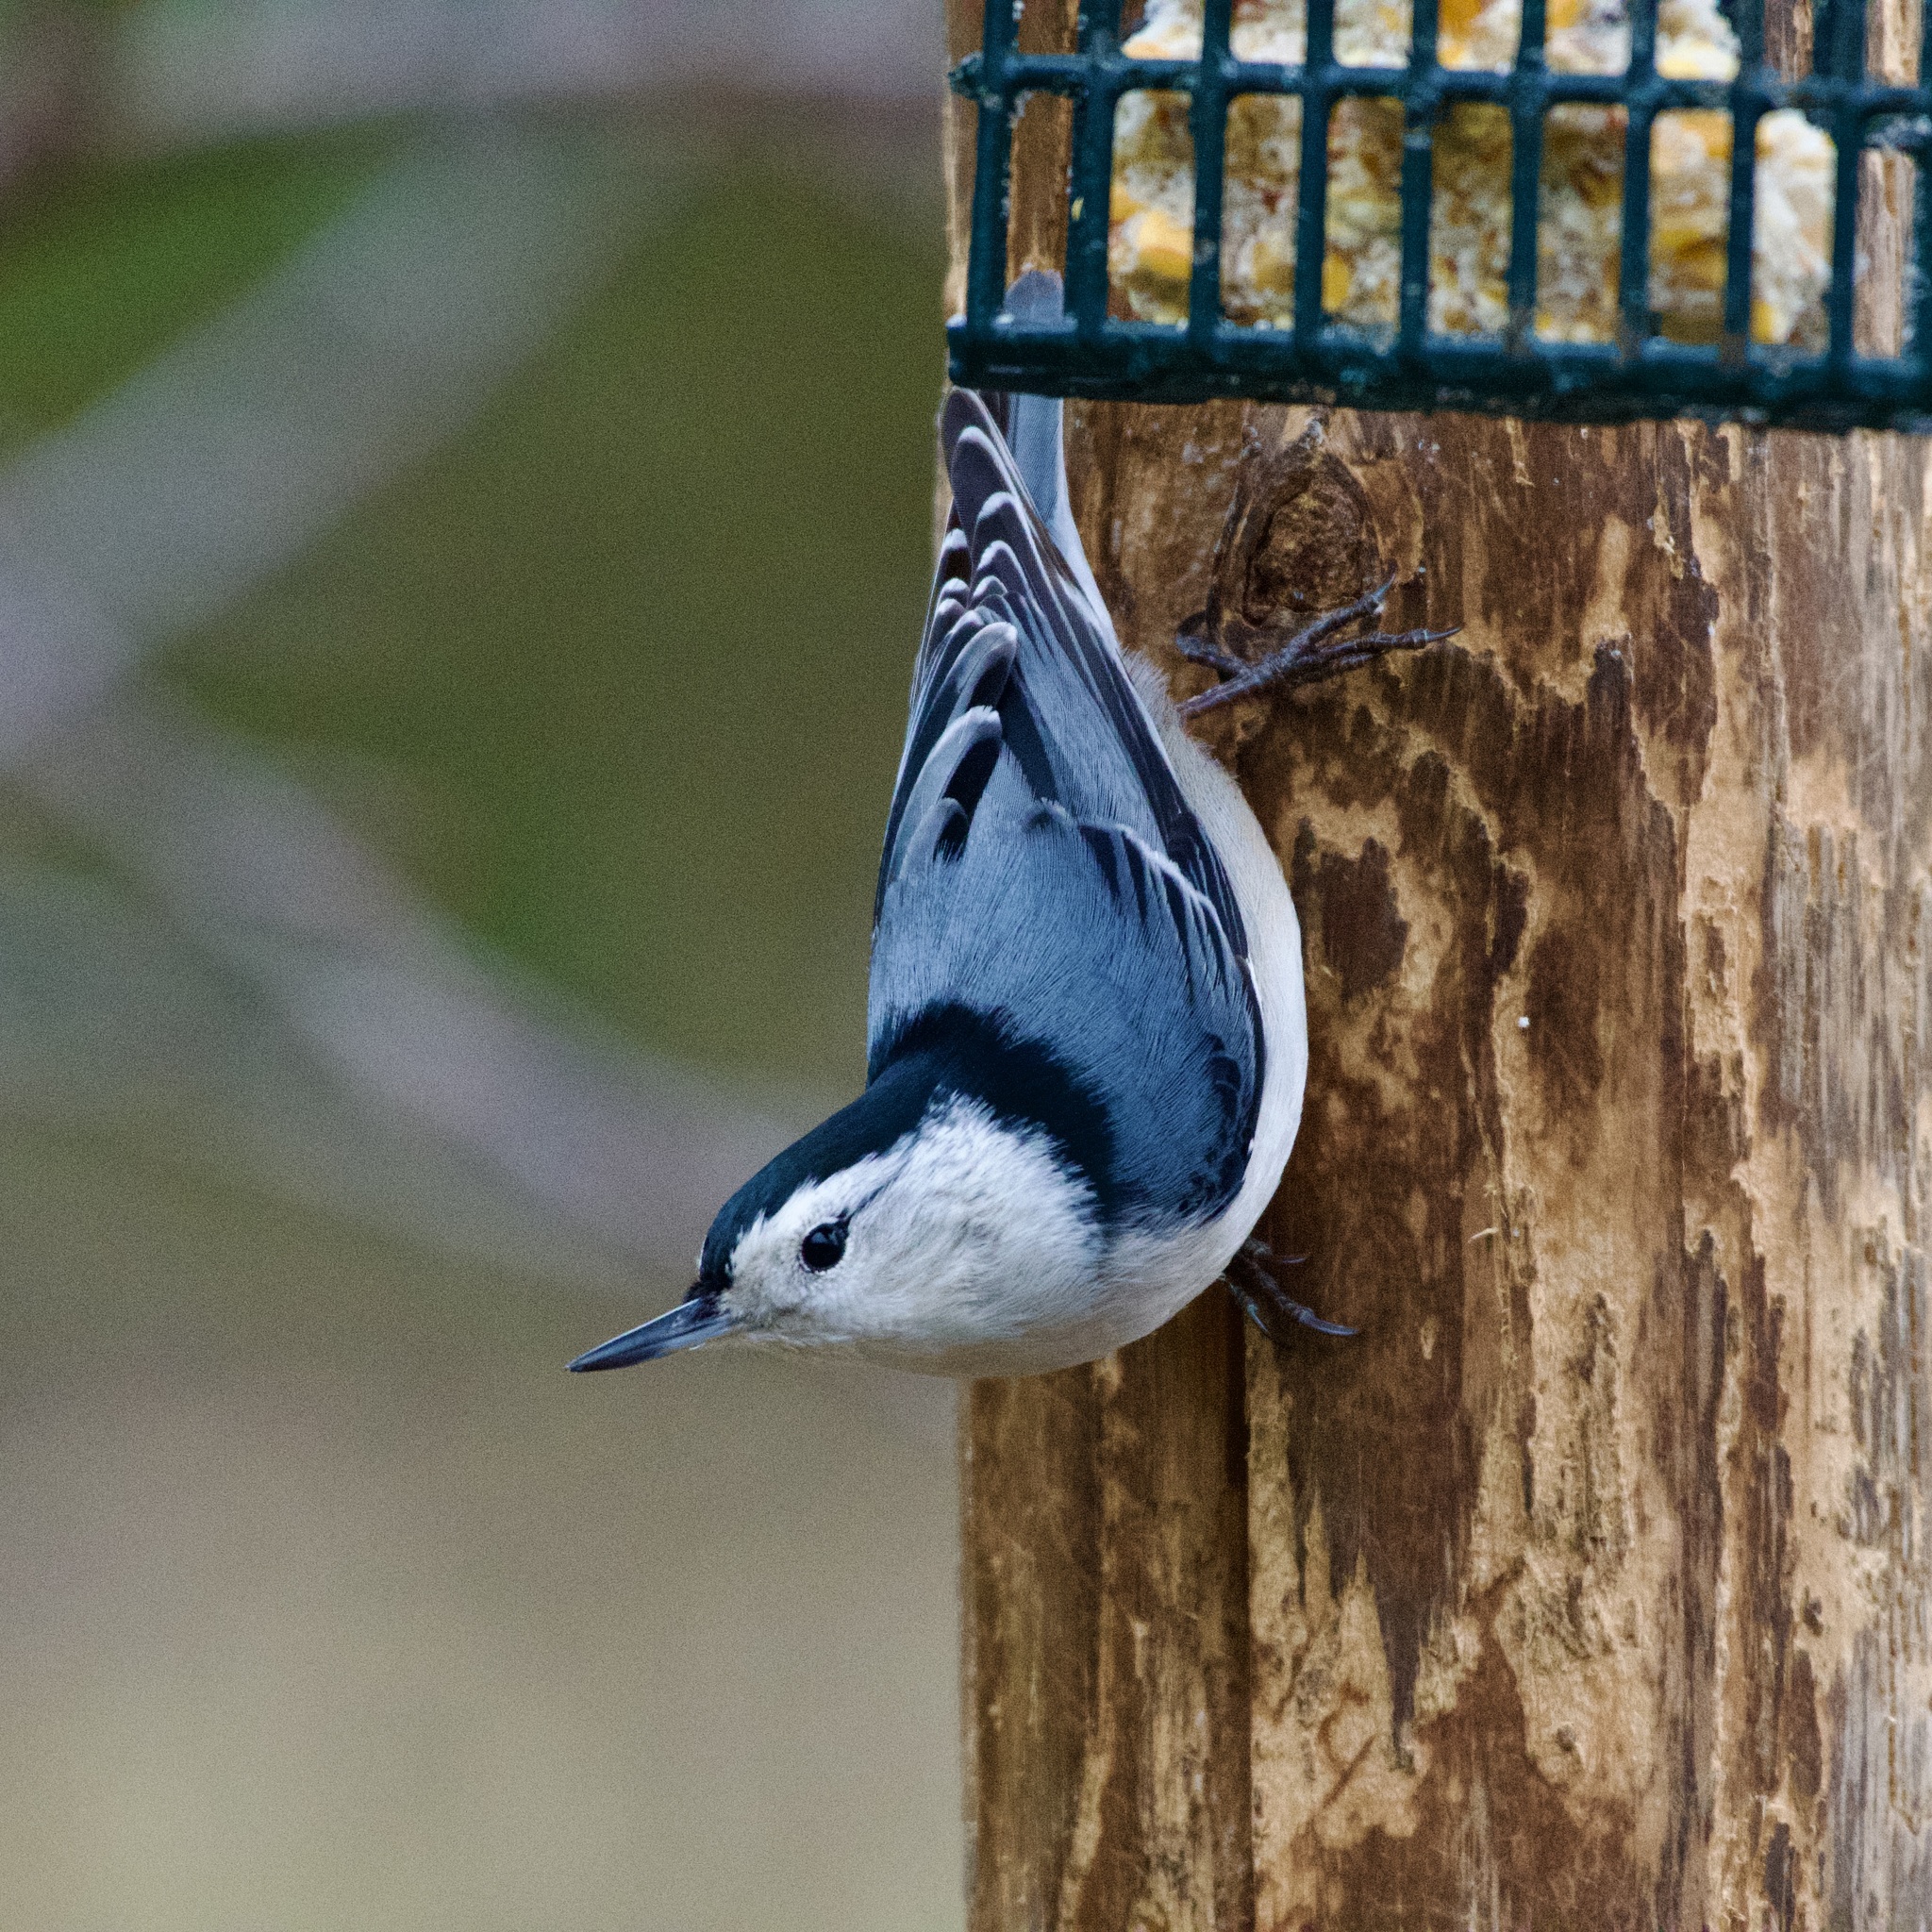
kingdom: Animalia
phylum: Chordata
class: Aves
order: Passeriformes
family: Sittidae
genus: Sitta
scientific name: Sitta carolinensis
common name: White-breasted nuthatch
